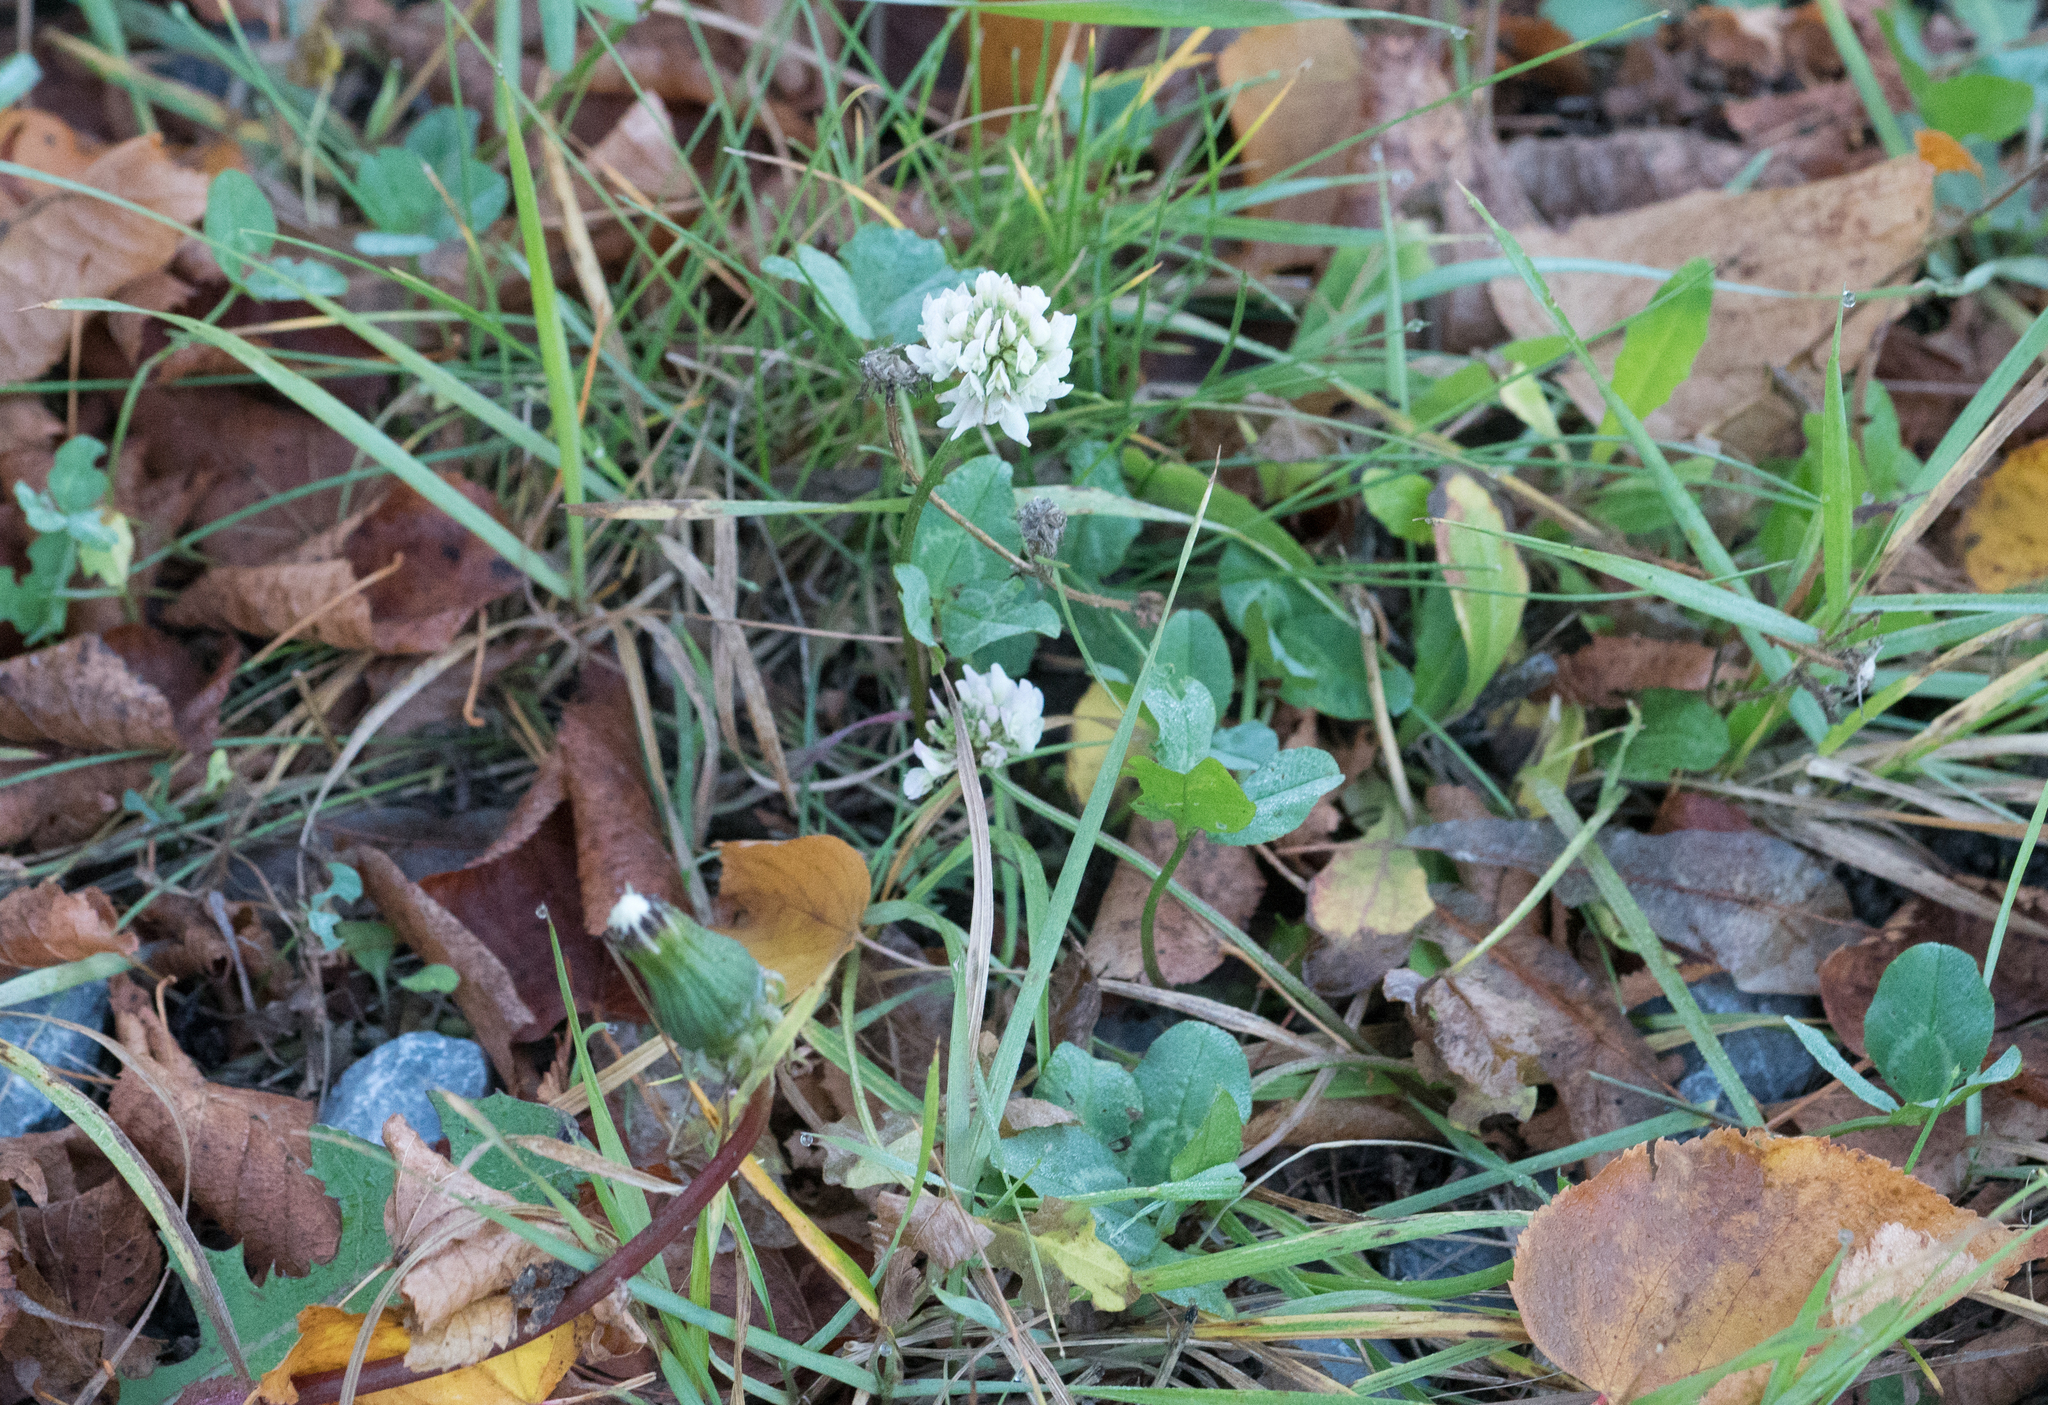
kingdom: Plantae
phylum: Tracheophyta
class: Magnoliopsida
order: Fabales
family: Fabaceae
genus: Trifolium
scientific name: Trifolium repens
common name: White clover
